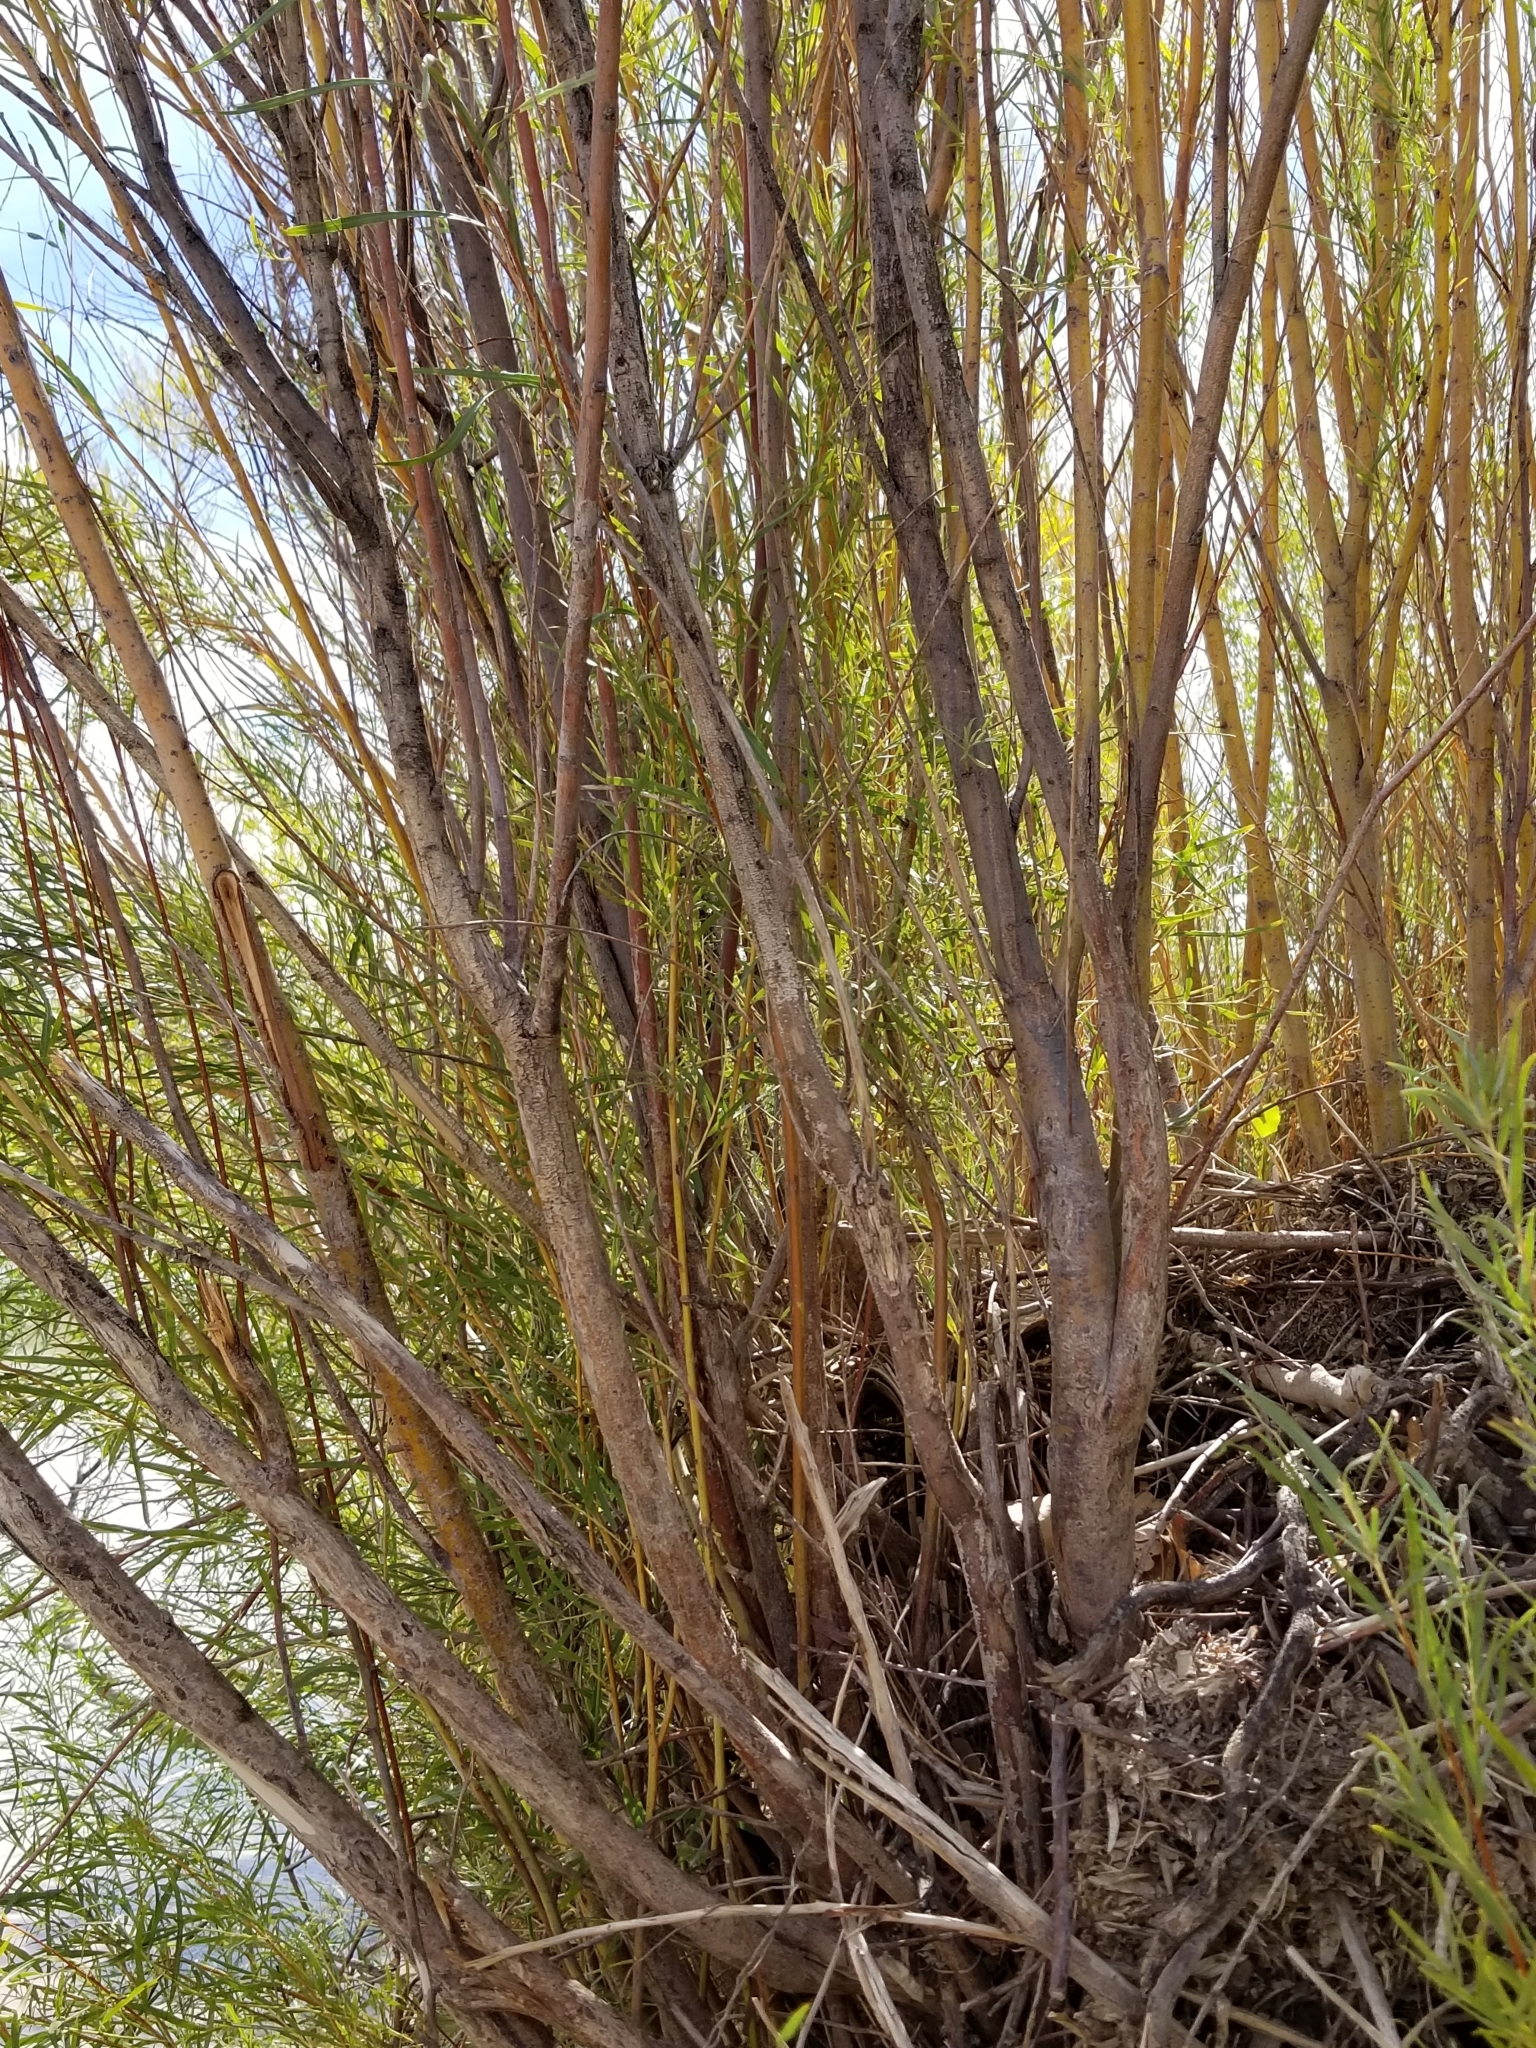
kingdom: Plantae
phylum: Tracheophyta
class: Magnoliopsida
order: Malpighiales
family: Salicaceae
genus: Salix
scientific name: Salix exigua
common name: Coyote willow
